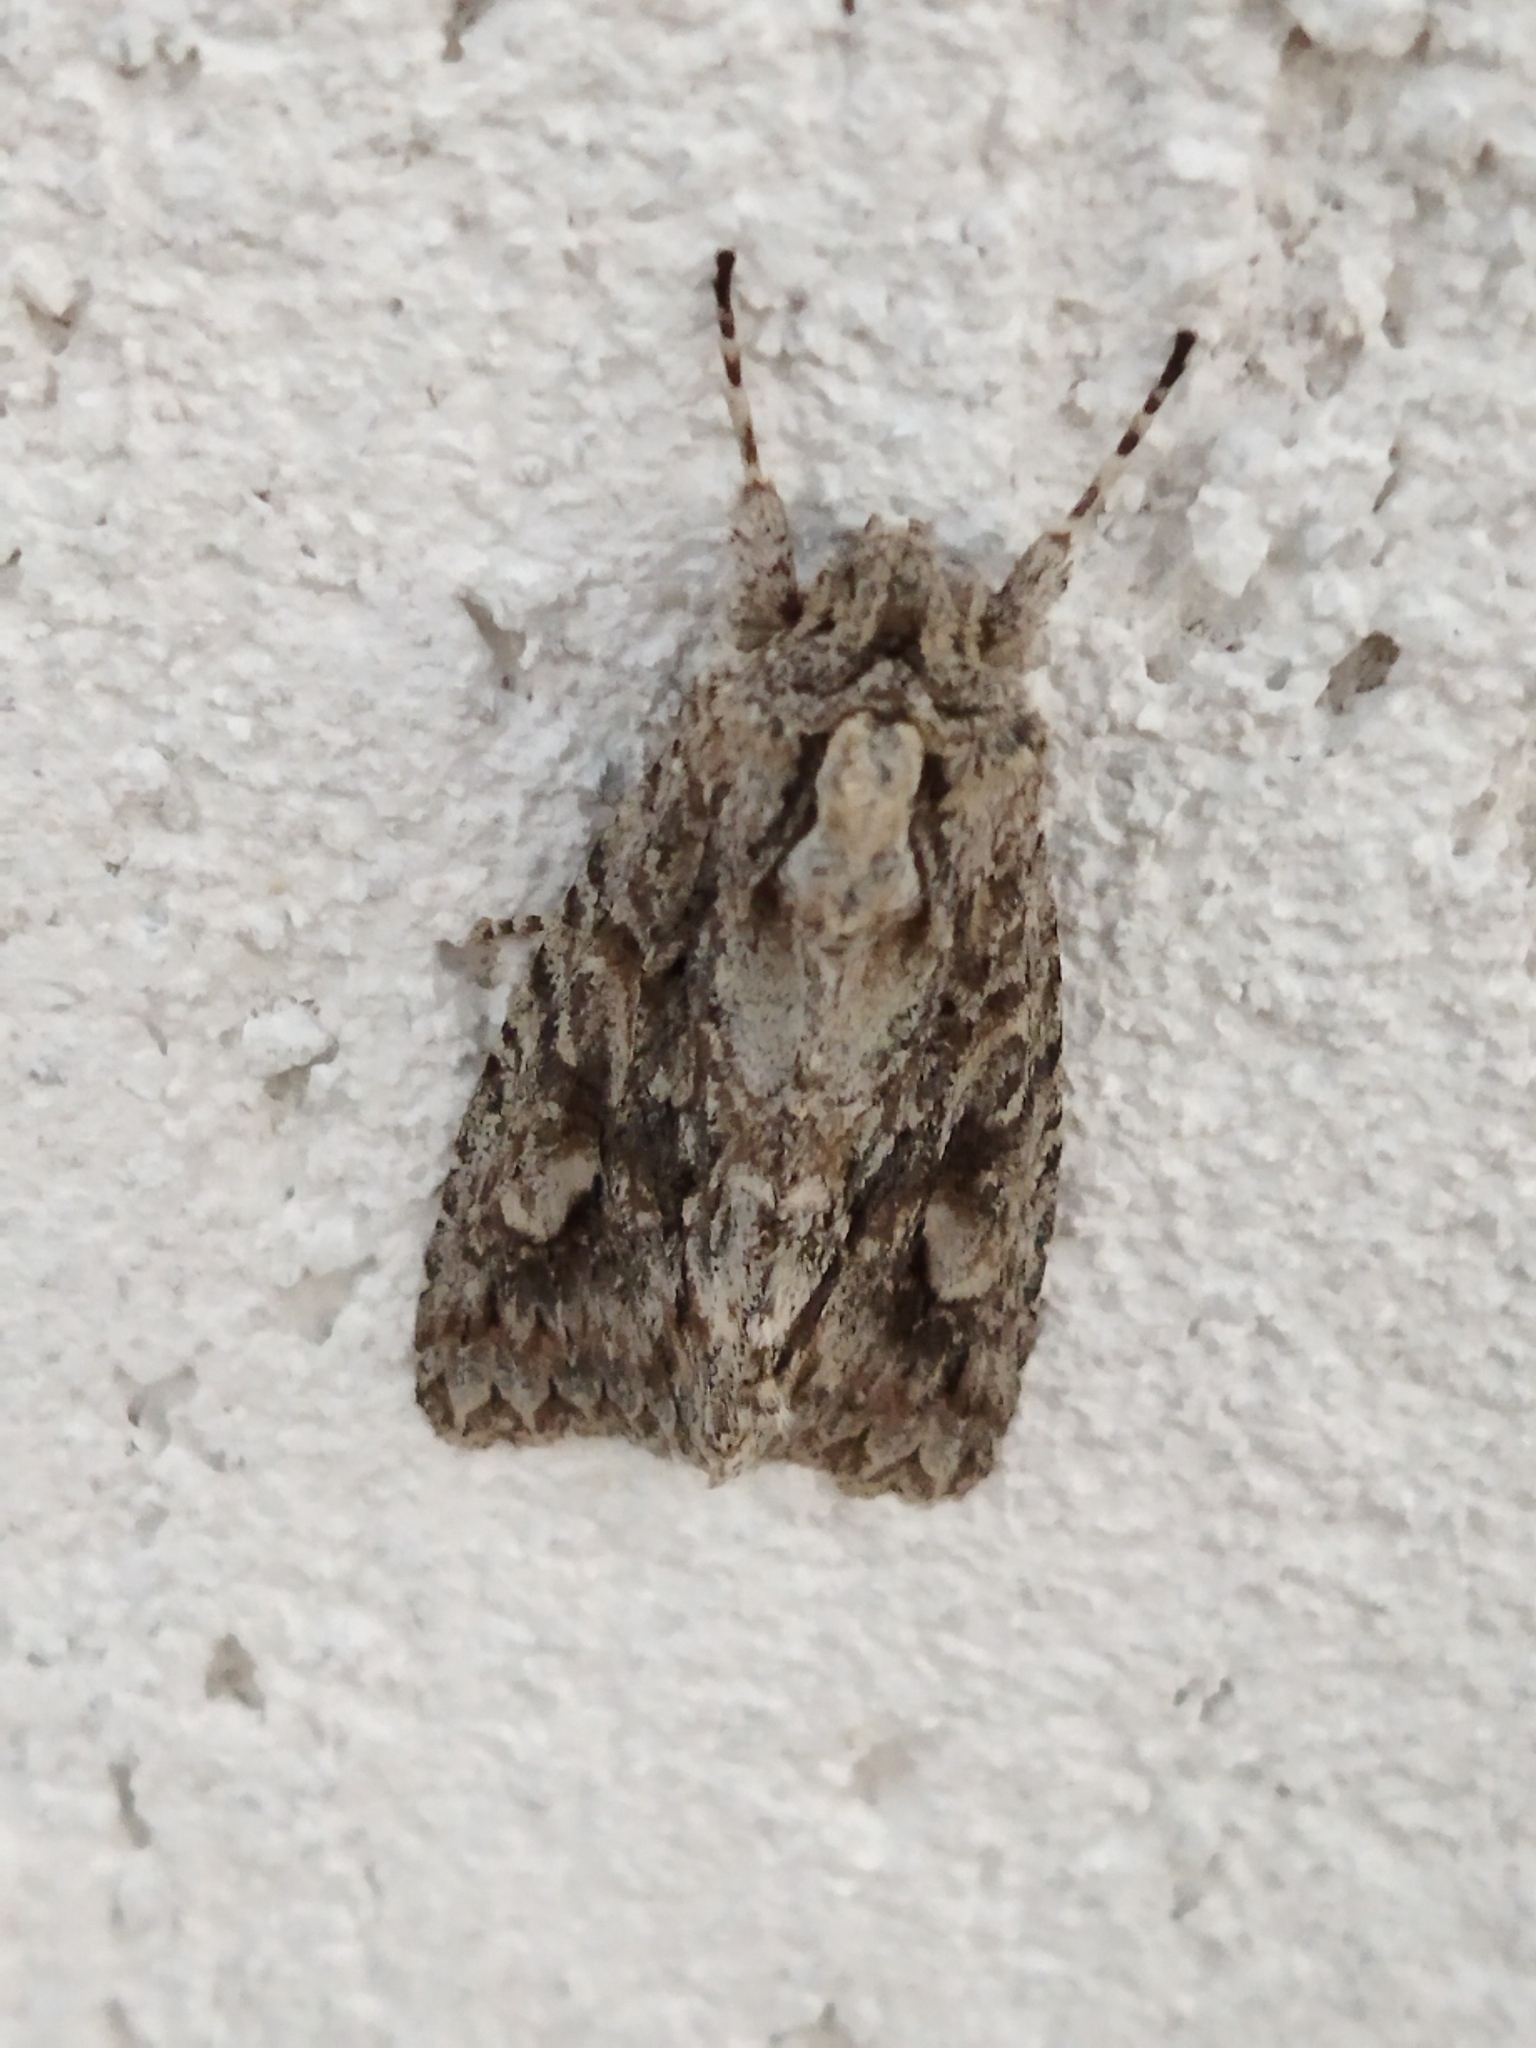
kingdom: Animalia
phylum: Arthropoda
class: Insecta
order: Lepidoptera
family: Noctuidae
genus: Meganephria
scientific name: Meganephria bimaculosa
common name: Double-spot brocade
